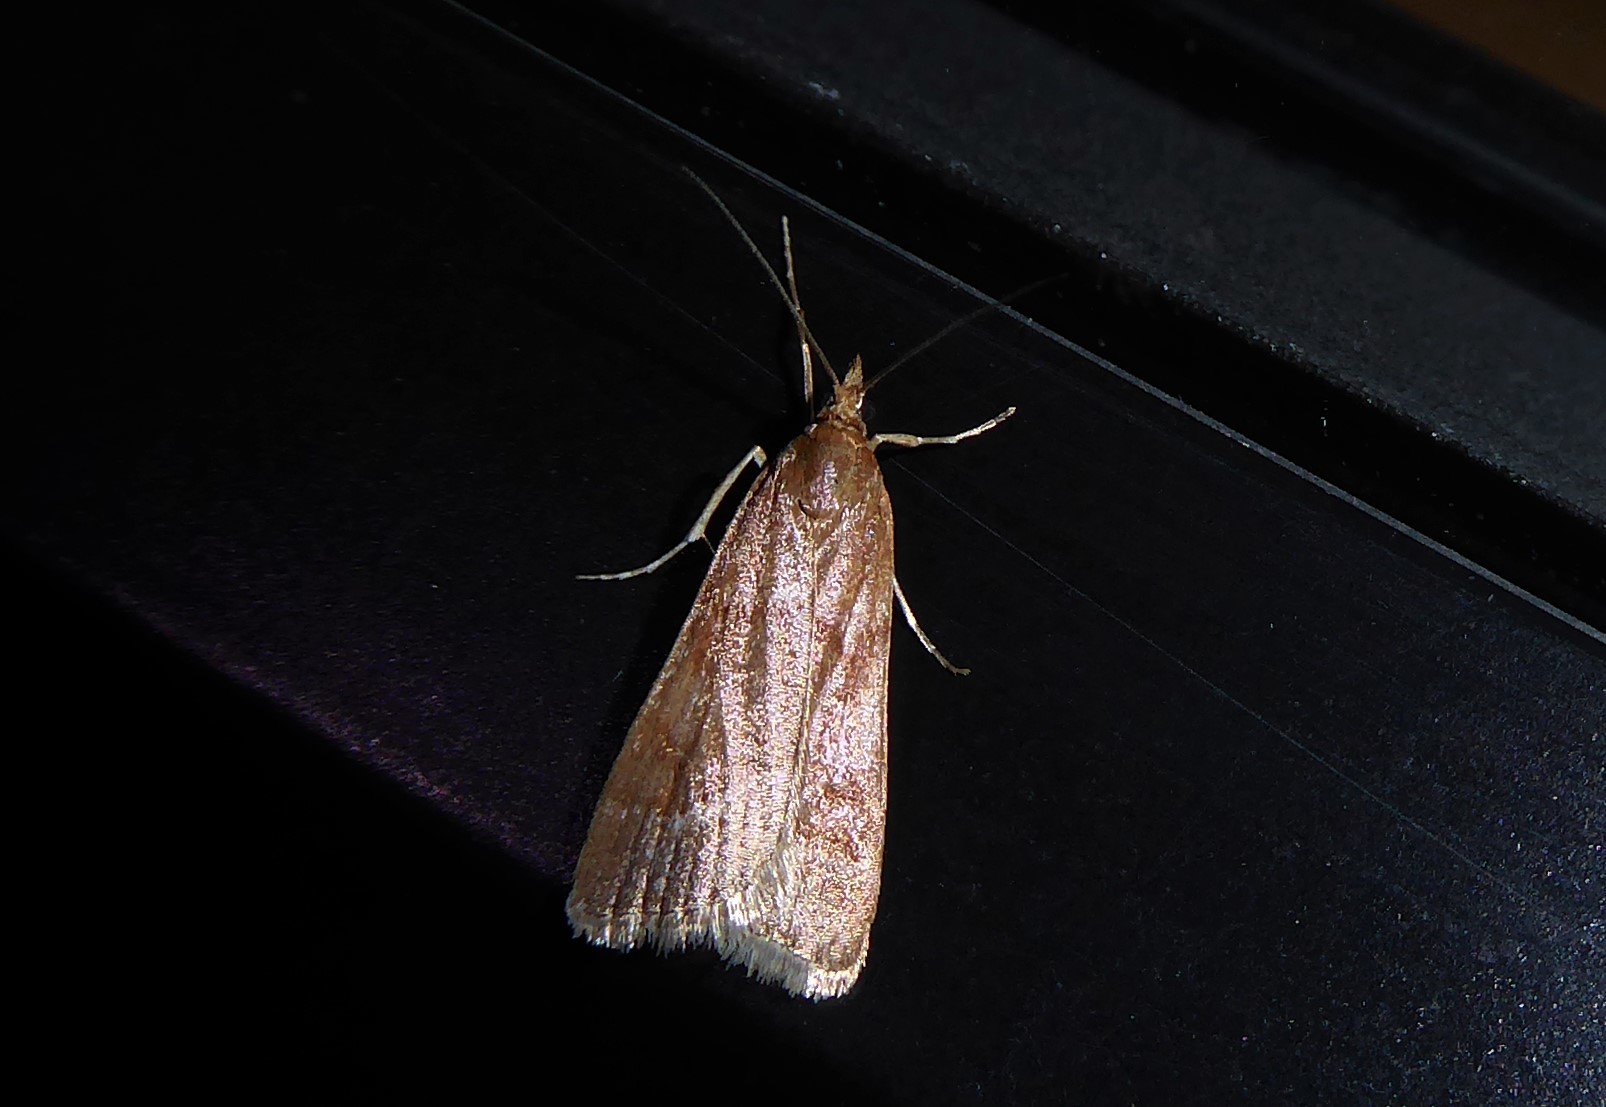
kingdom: Animalia
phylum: Arthropoda
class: Insecta
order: Lepidoptera
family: Crambidae
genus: Eudonia
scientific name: Eudonia feredayi
